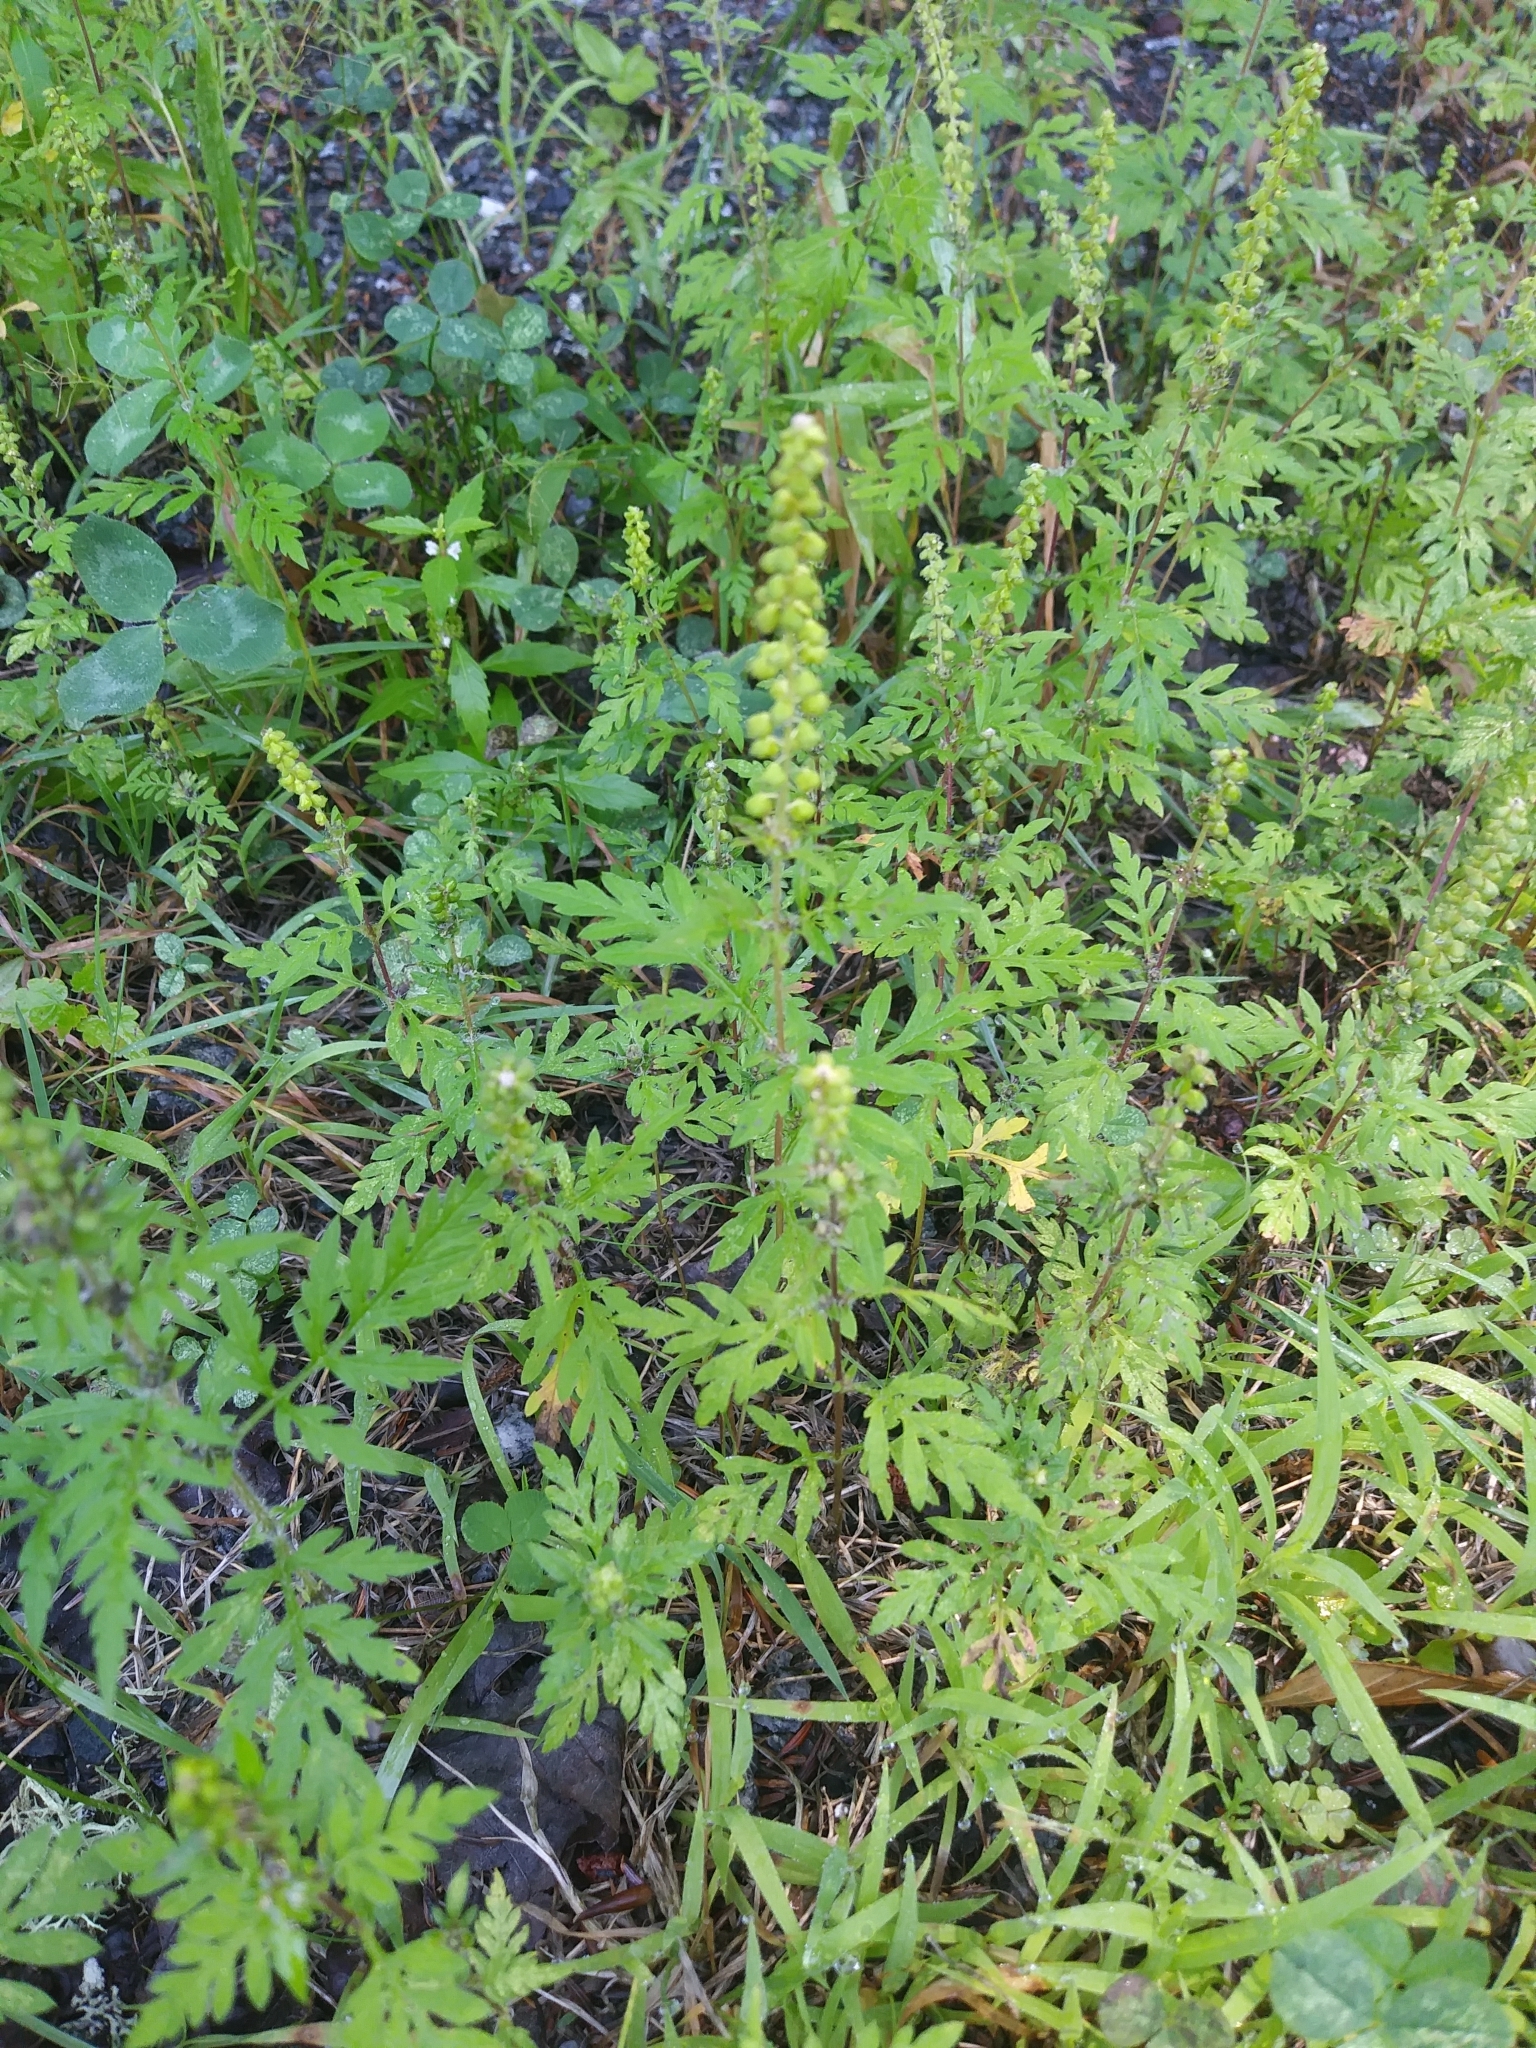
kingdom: Plantae
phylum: Tracheophyta
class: Magnoliopsida
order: Asterales
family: Asteraceae
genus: Ambrosia
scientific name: Ambrosia artemisiifolia
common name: Annual ragweed
